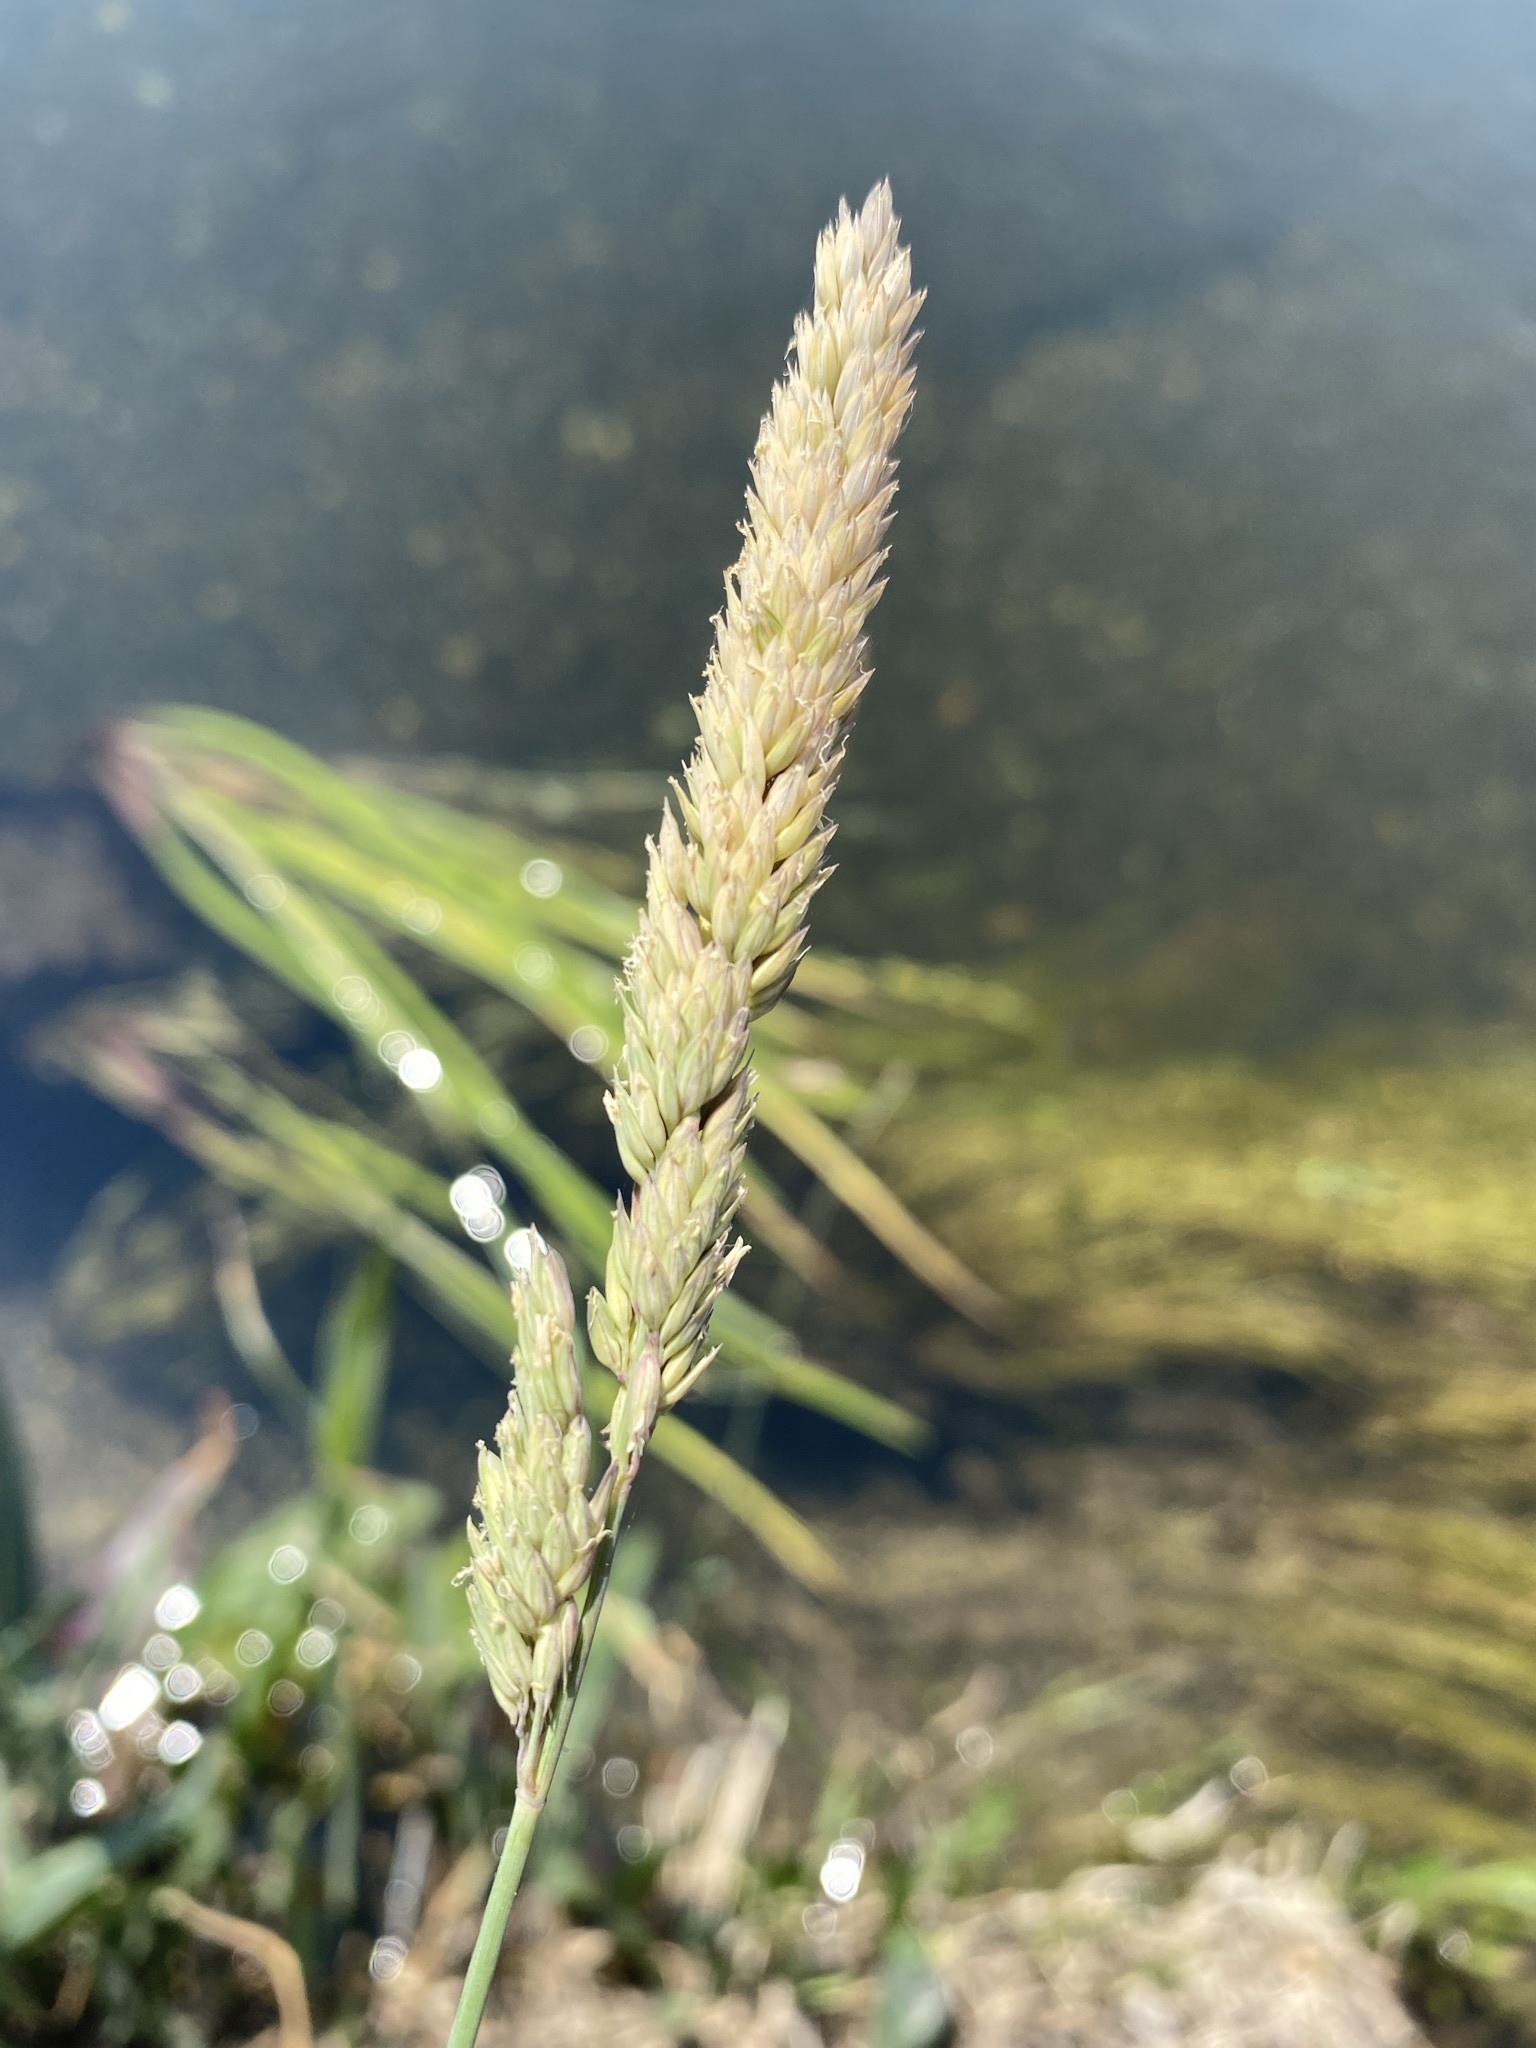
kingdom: Plantae
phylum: Tracheophyta
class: Liliopsida
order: Poales
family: Poaceae
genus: Phalaris
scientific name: Phalaris arundinacea
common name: Reed canary-grass
